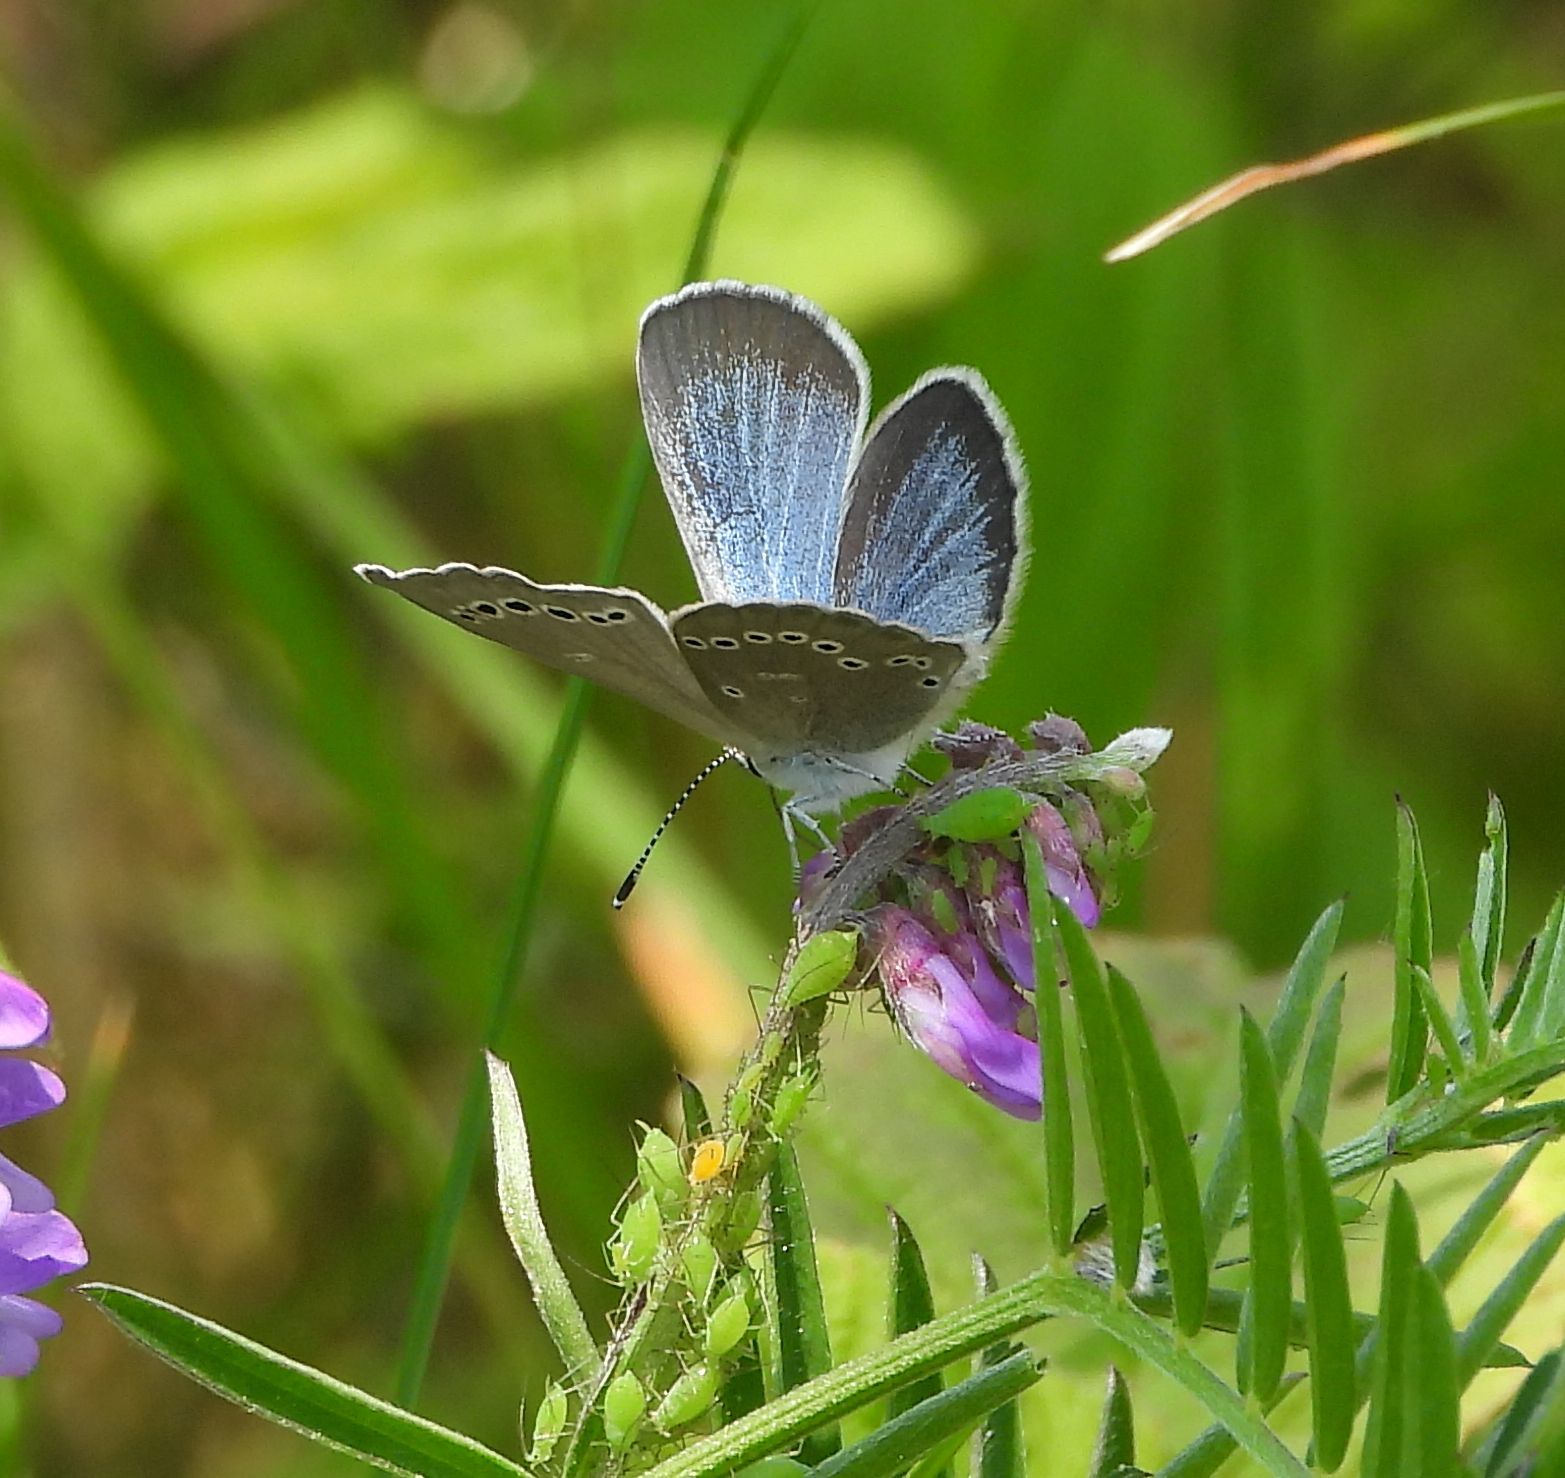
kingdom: Animalia
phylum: Arthropoda
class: Insecta
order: Lepidoptera
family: Lycaenidae
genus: Glaucopsyche
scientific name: Glaucopsyche lygdamus
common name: Silvery blue
